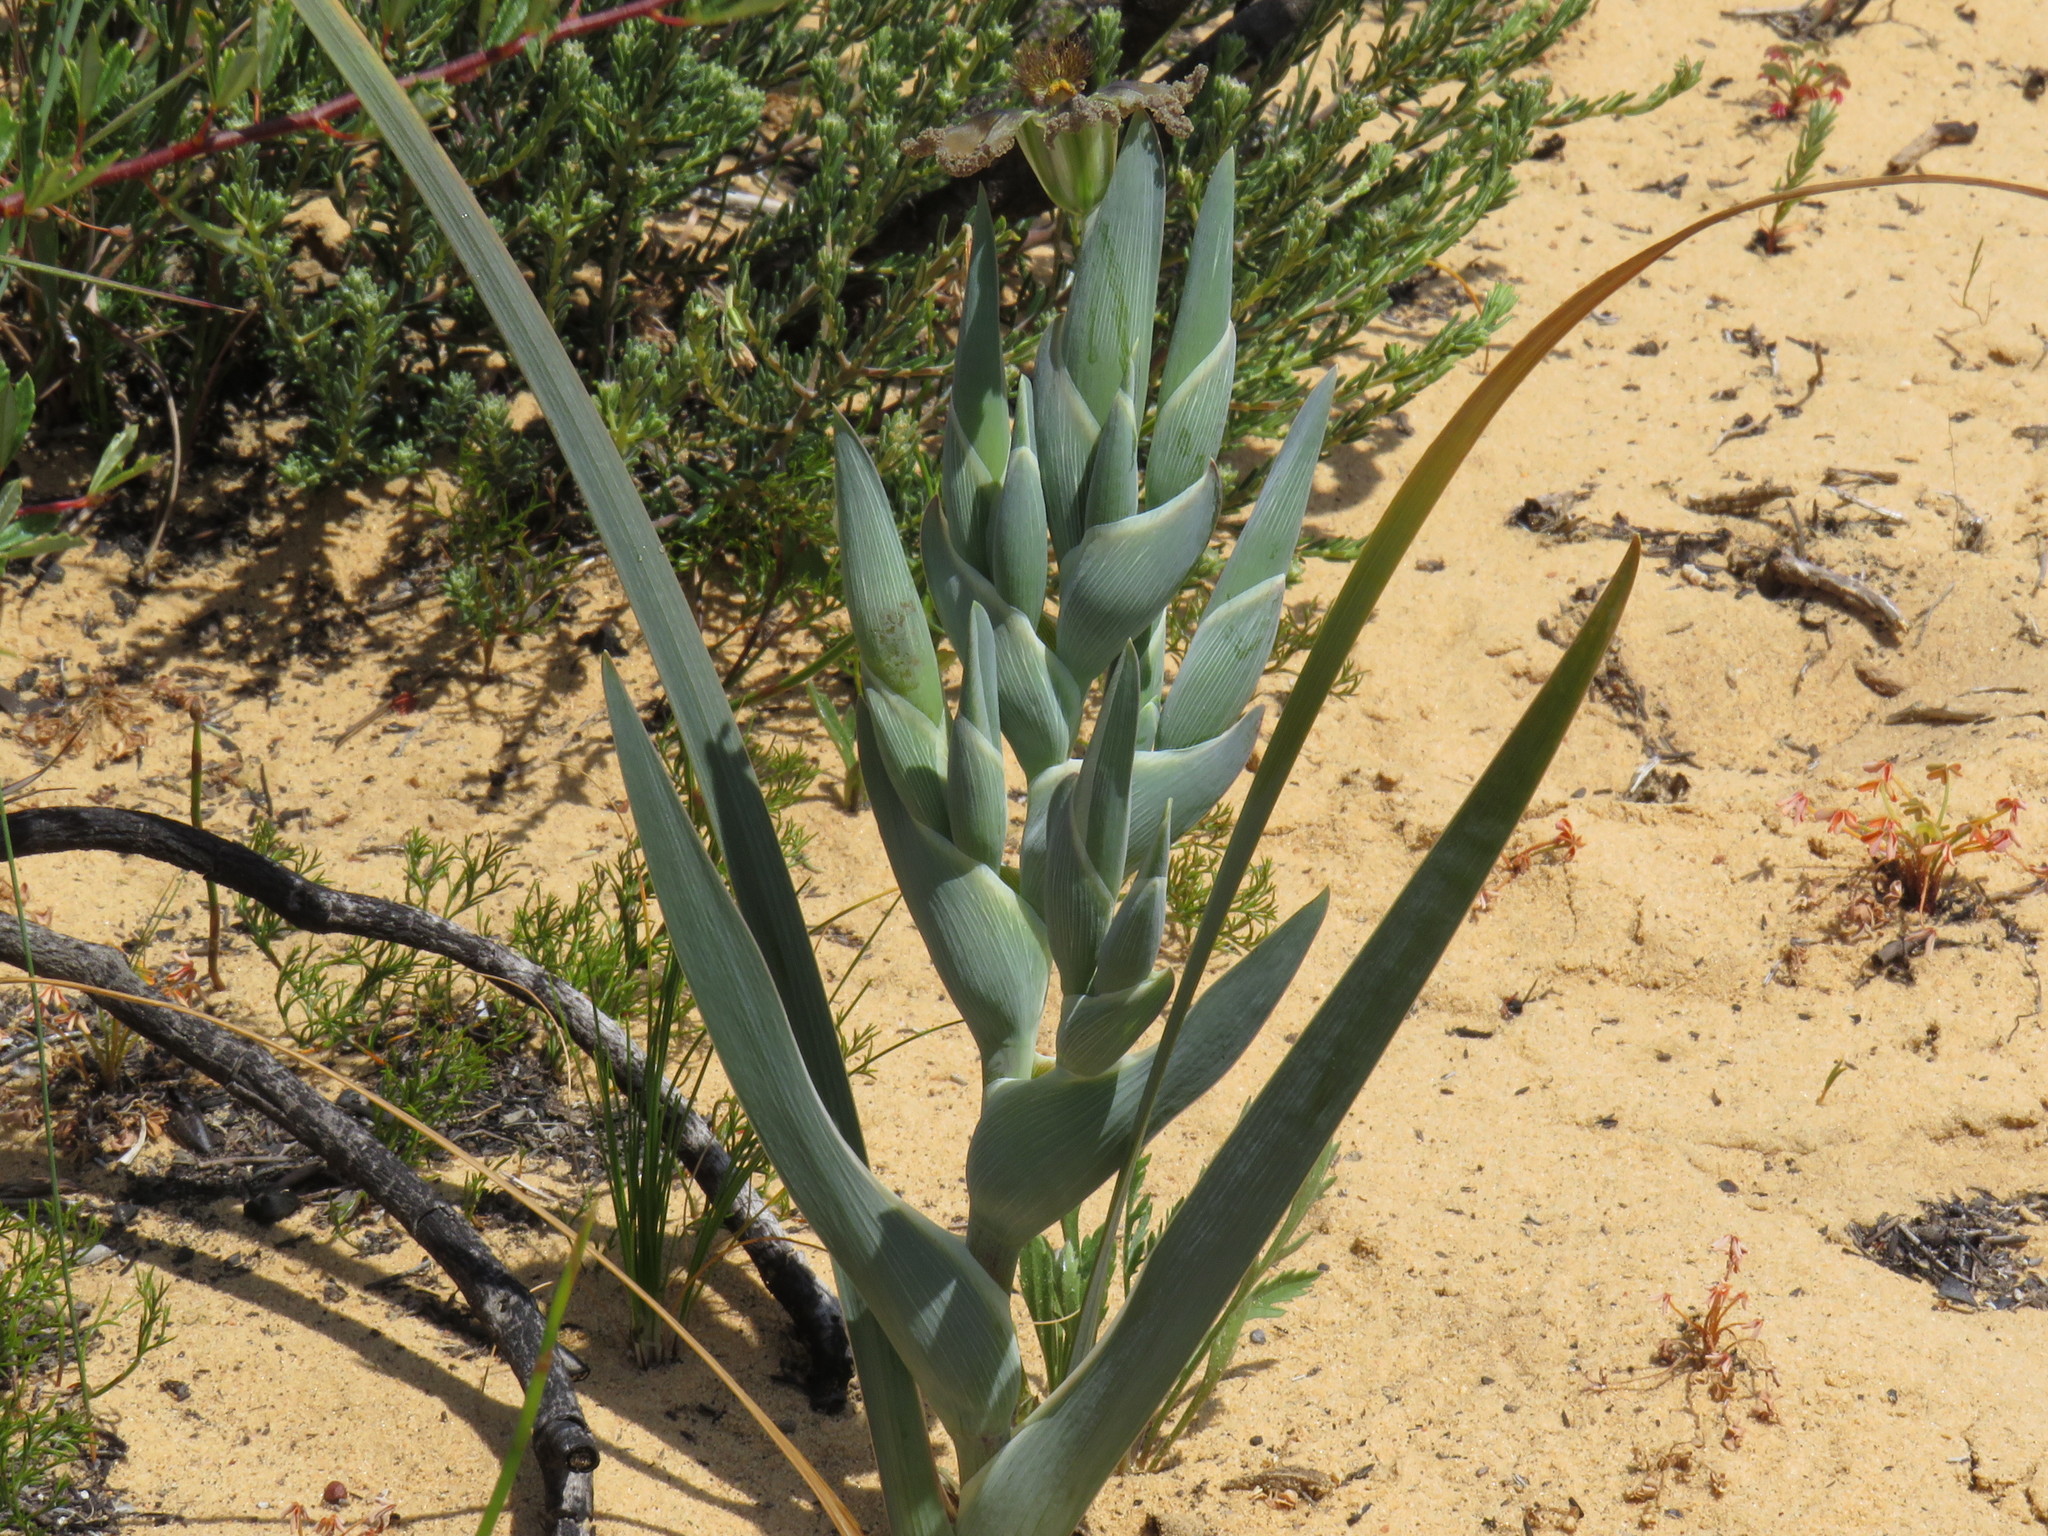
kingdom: Plantae
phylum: Tracheophyta
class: Liliopsida
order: Asparagales
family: Iridaceae
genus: Ferraria
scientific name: Ferraria divaricata
